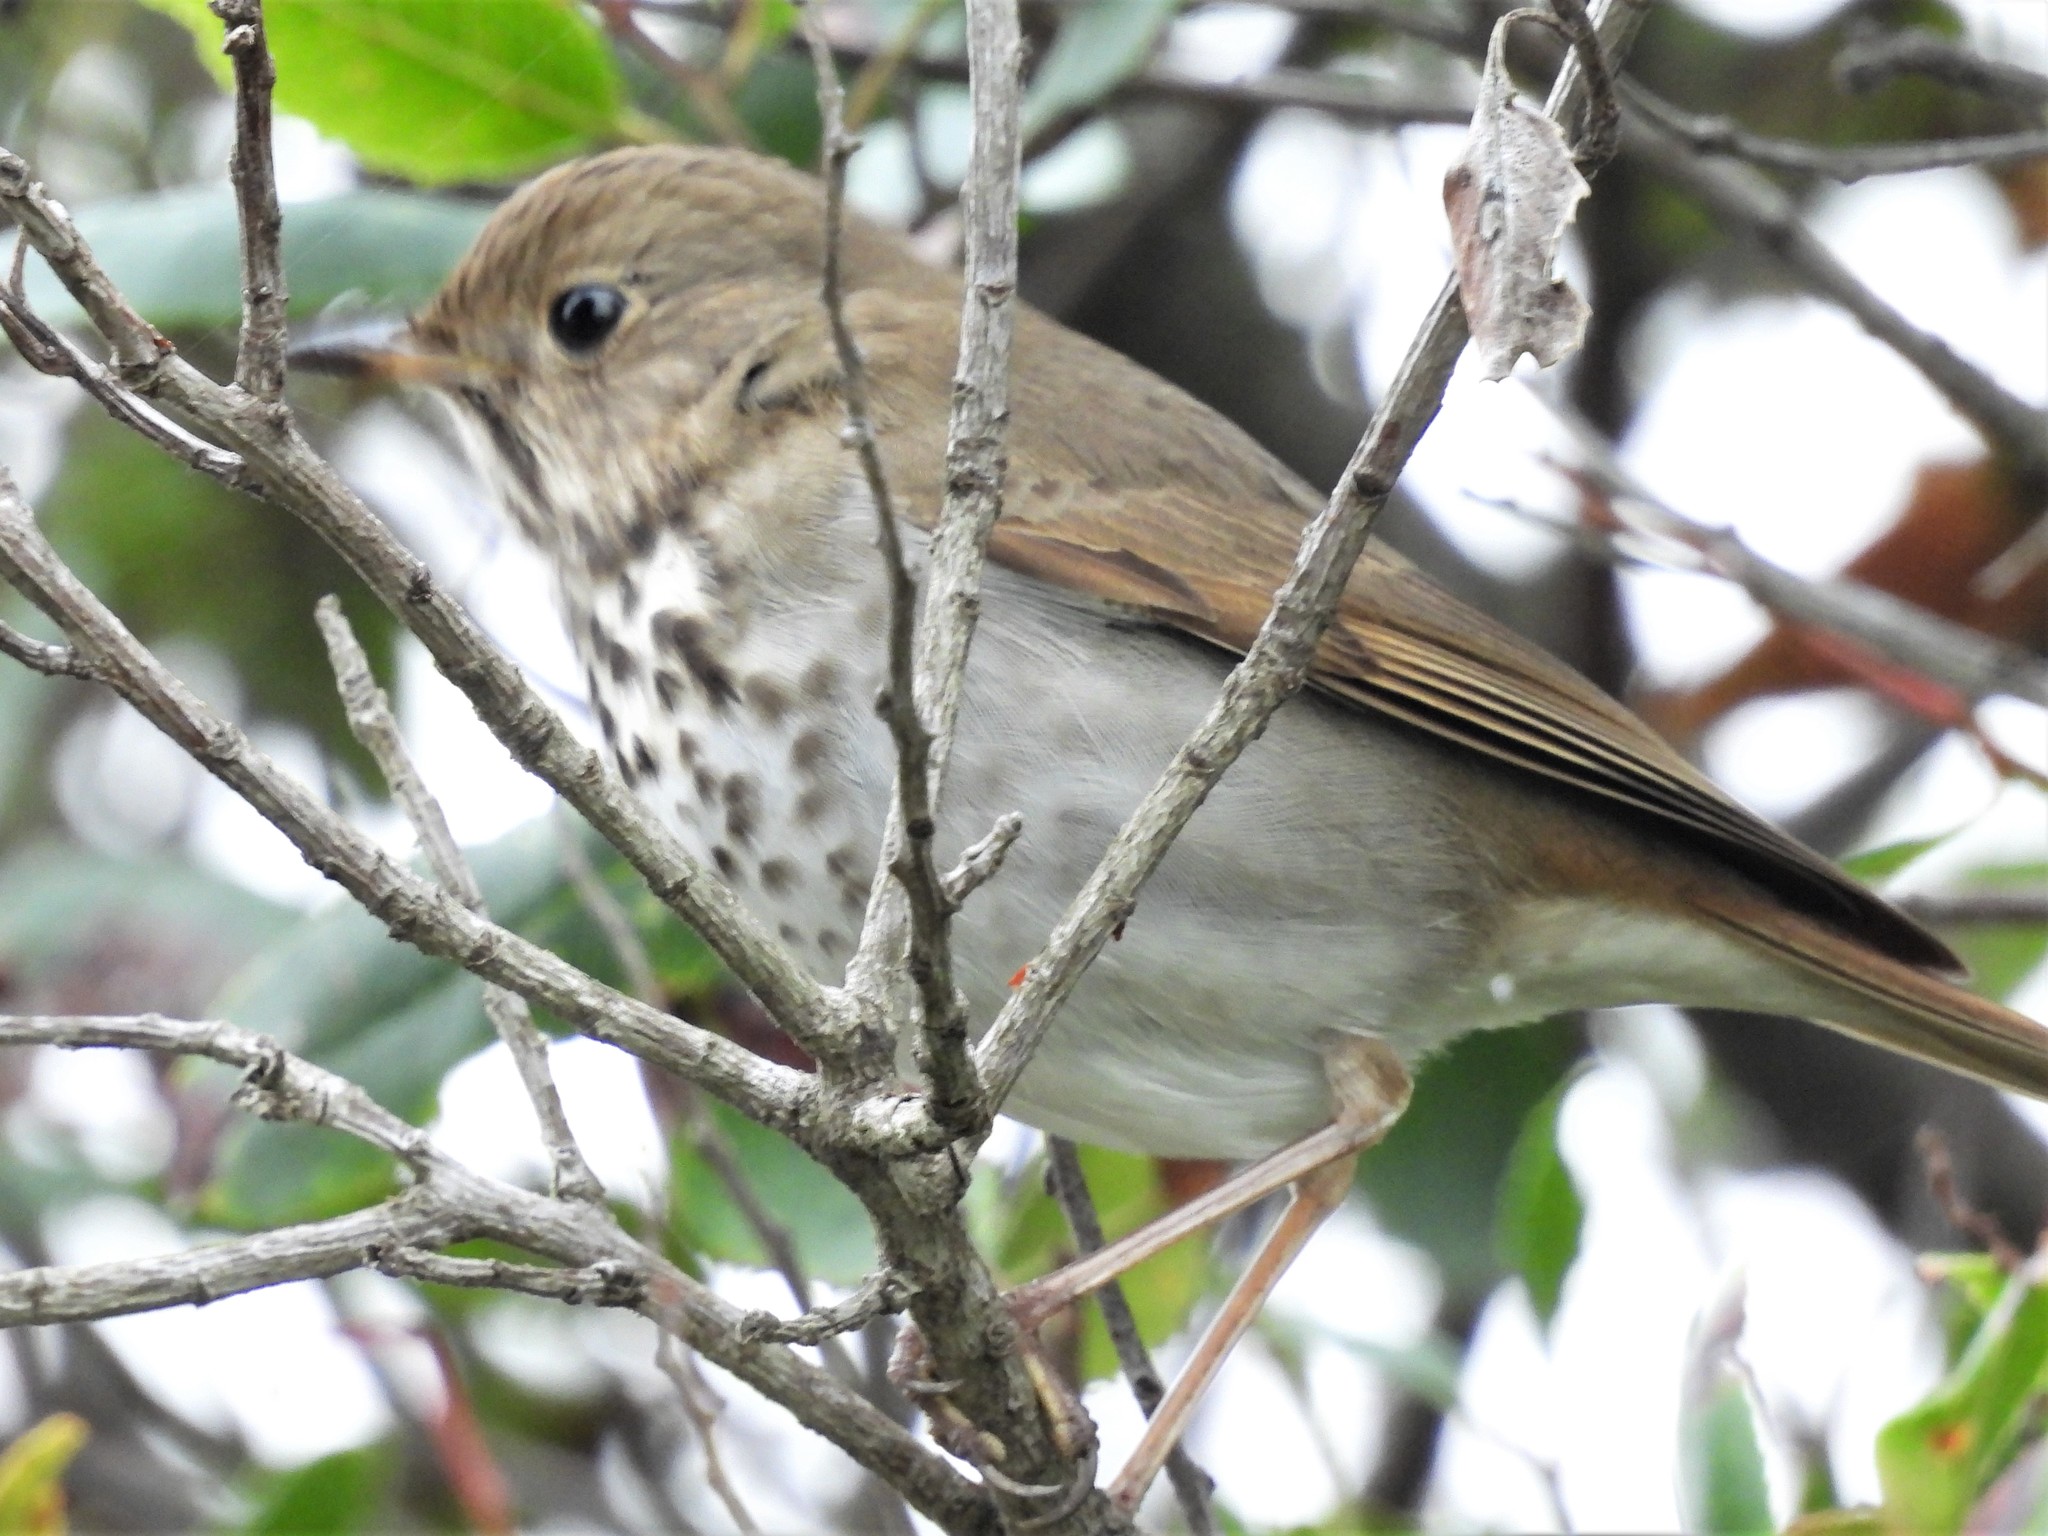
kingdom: Animalia
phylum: Chordata
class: Aves
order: Passeriformes
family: Turdidae
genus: Catharus
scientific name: Catharus guttatus
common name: Hermit thrush
